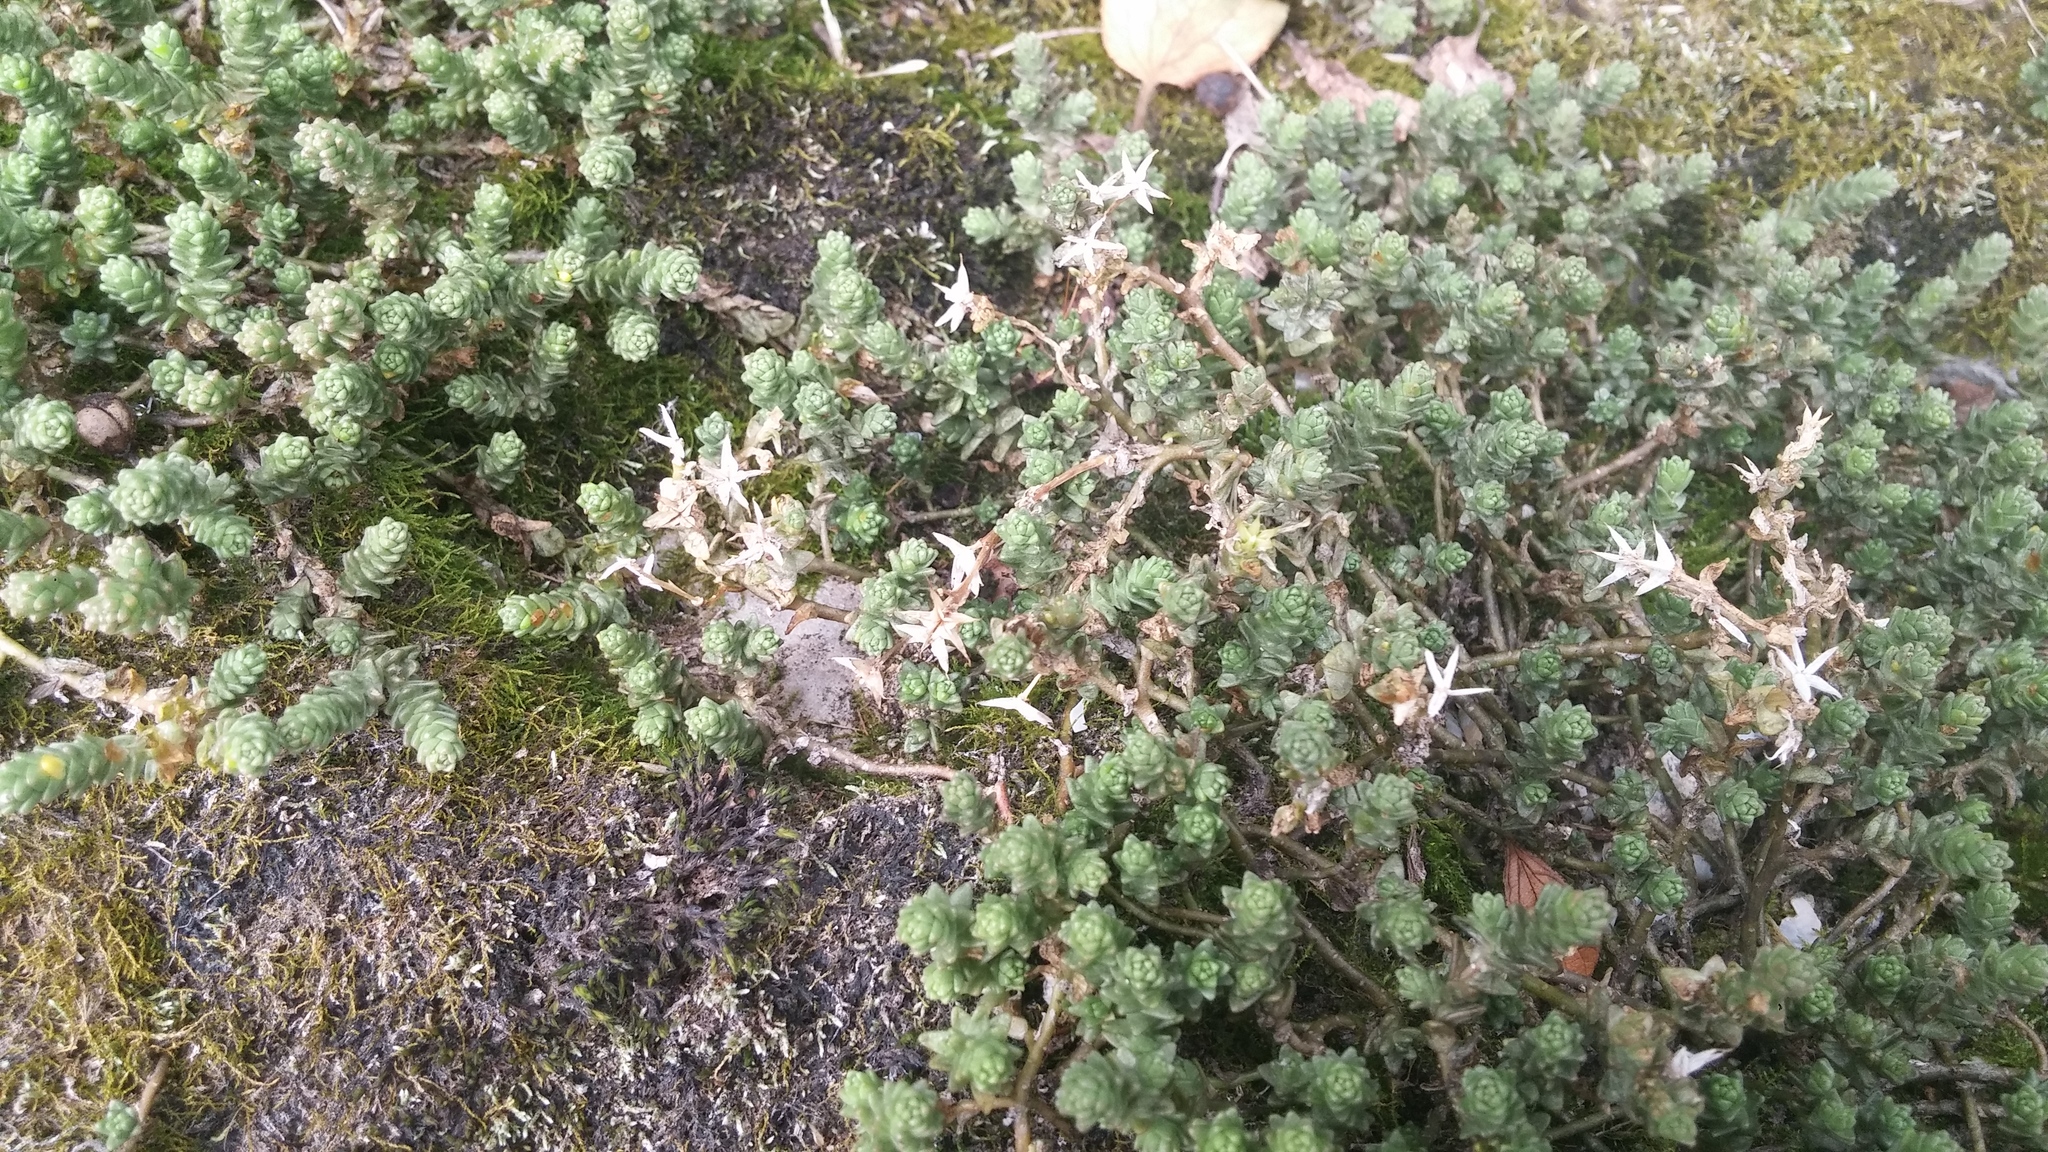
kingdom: Plantae
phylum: Tracheophyta
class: Magnoliopsida
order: Saxifragales
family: Crassulaceae
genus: Sedum
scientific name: Sedum acre
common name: Biting stonecrop
